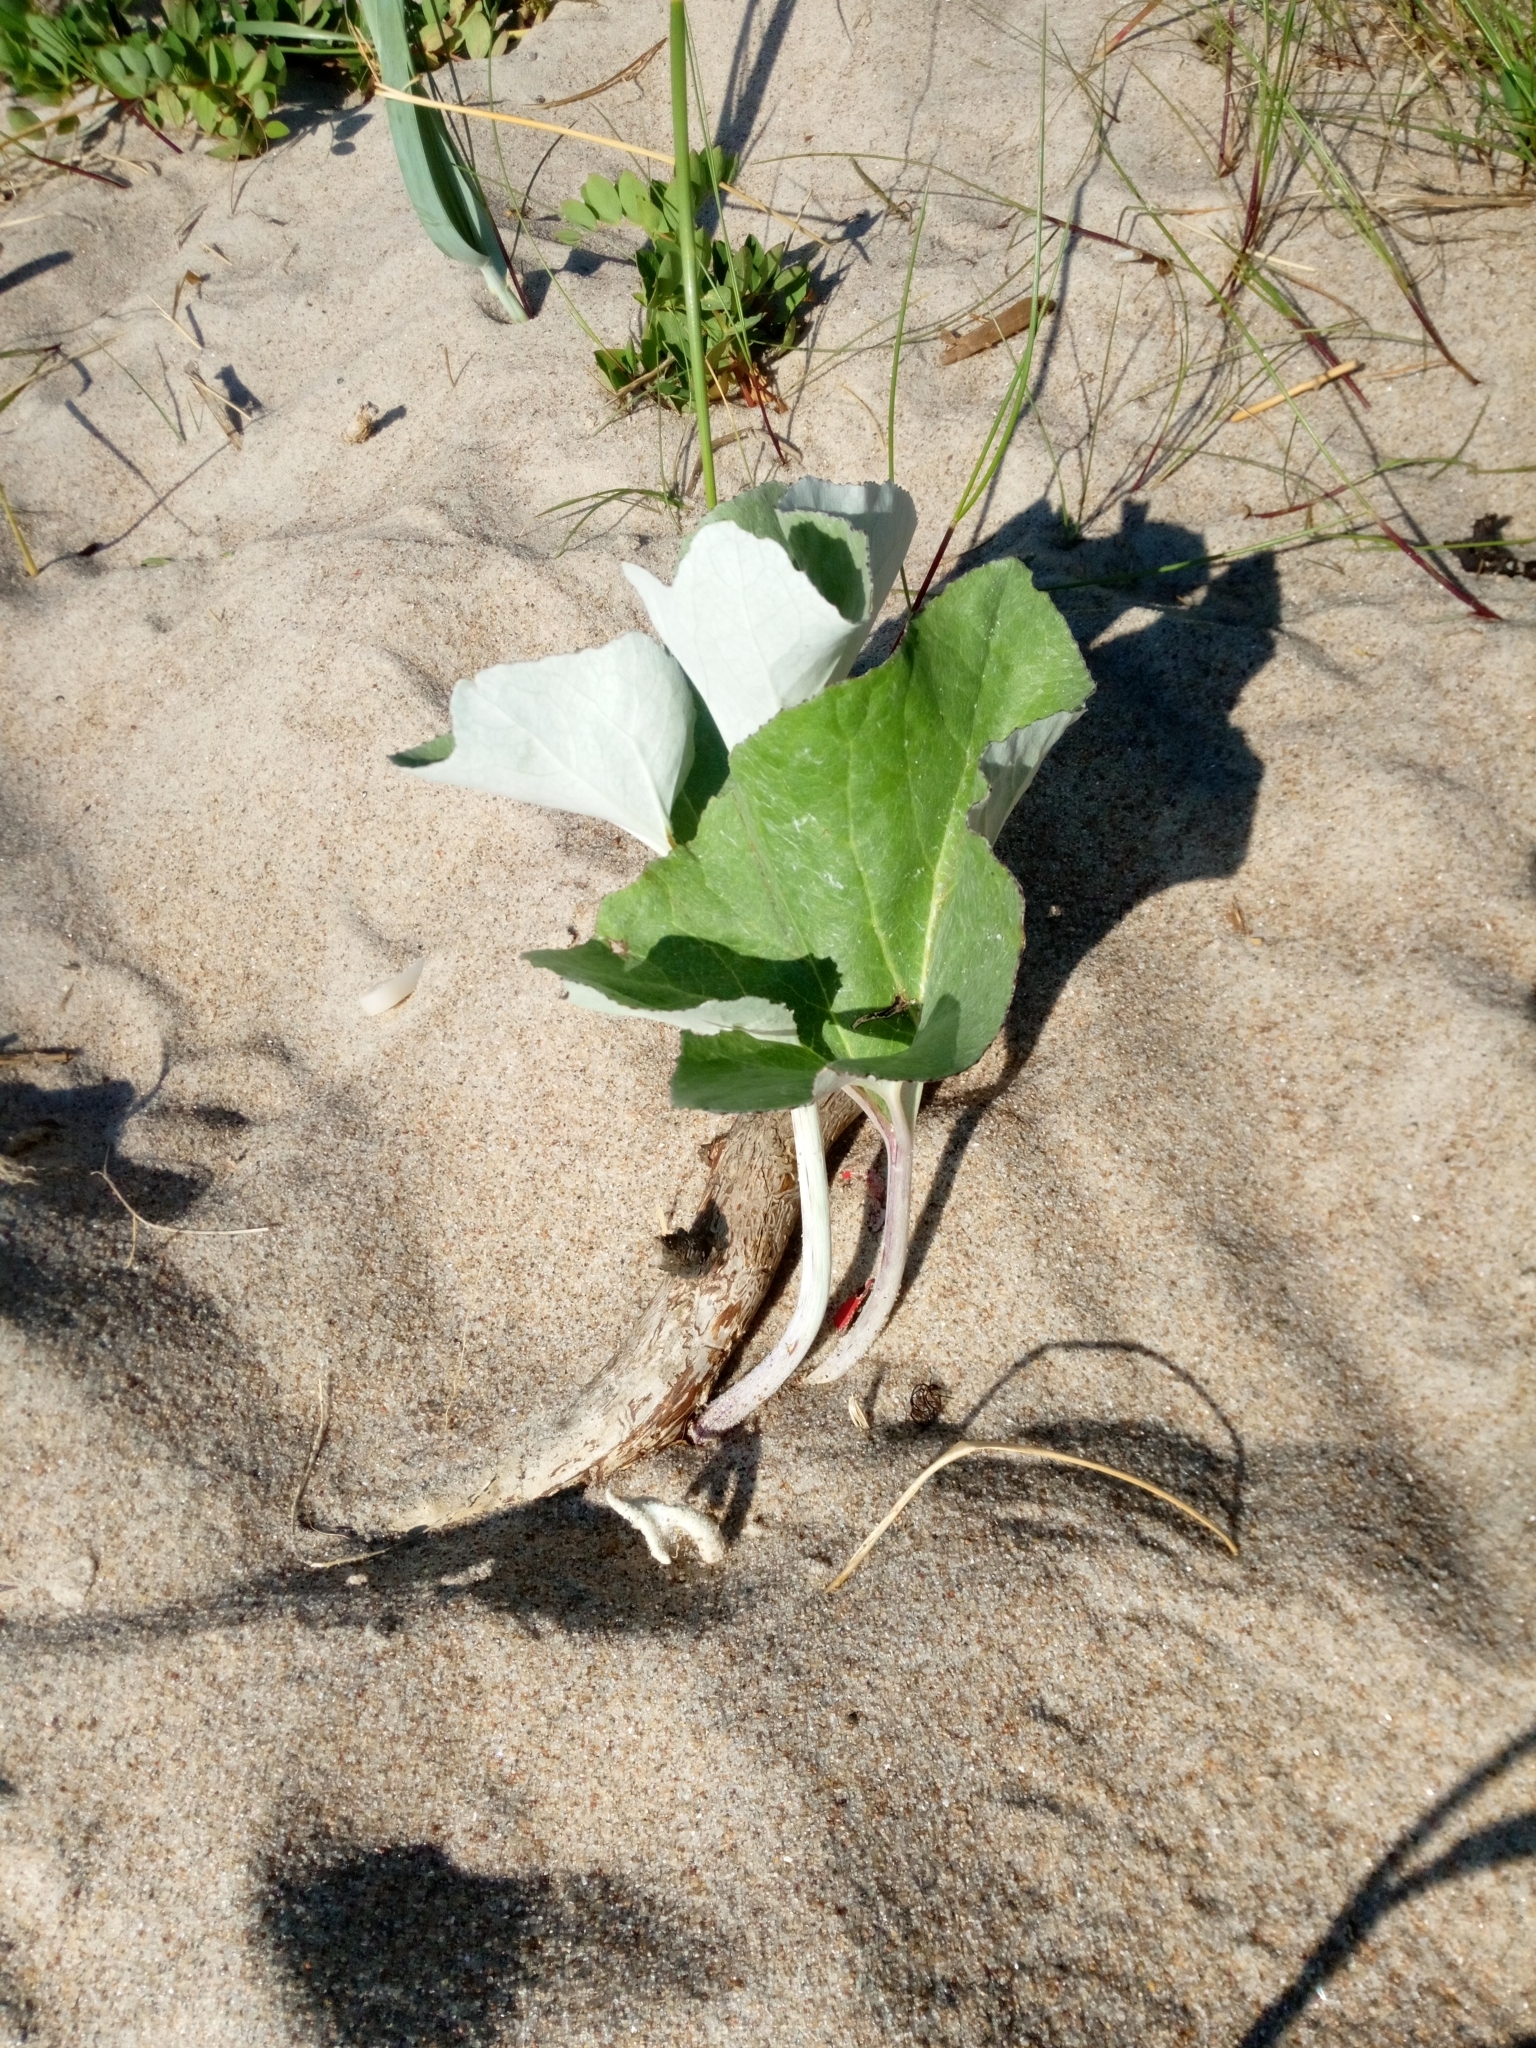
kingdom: Plantae
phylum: Tracheophyta
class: Magnoliopsida
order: Asterales
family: Asteraceae
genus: Petasites
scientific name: Petasites spurius
